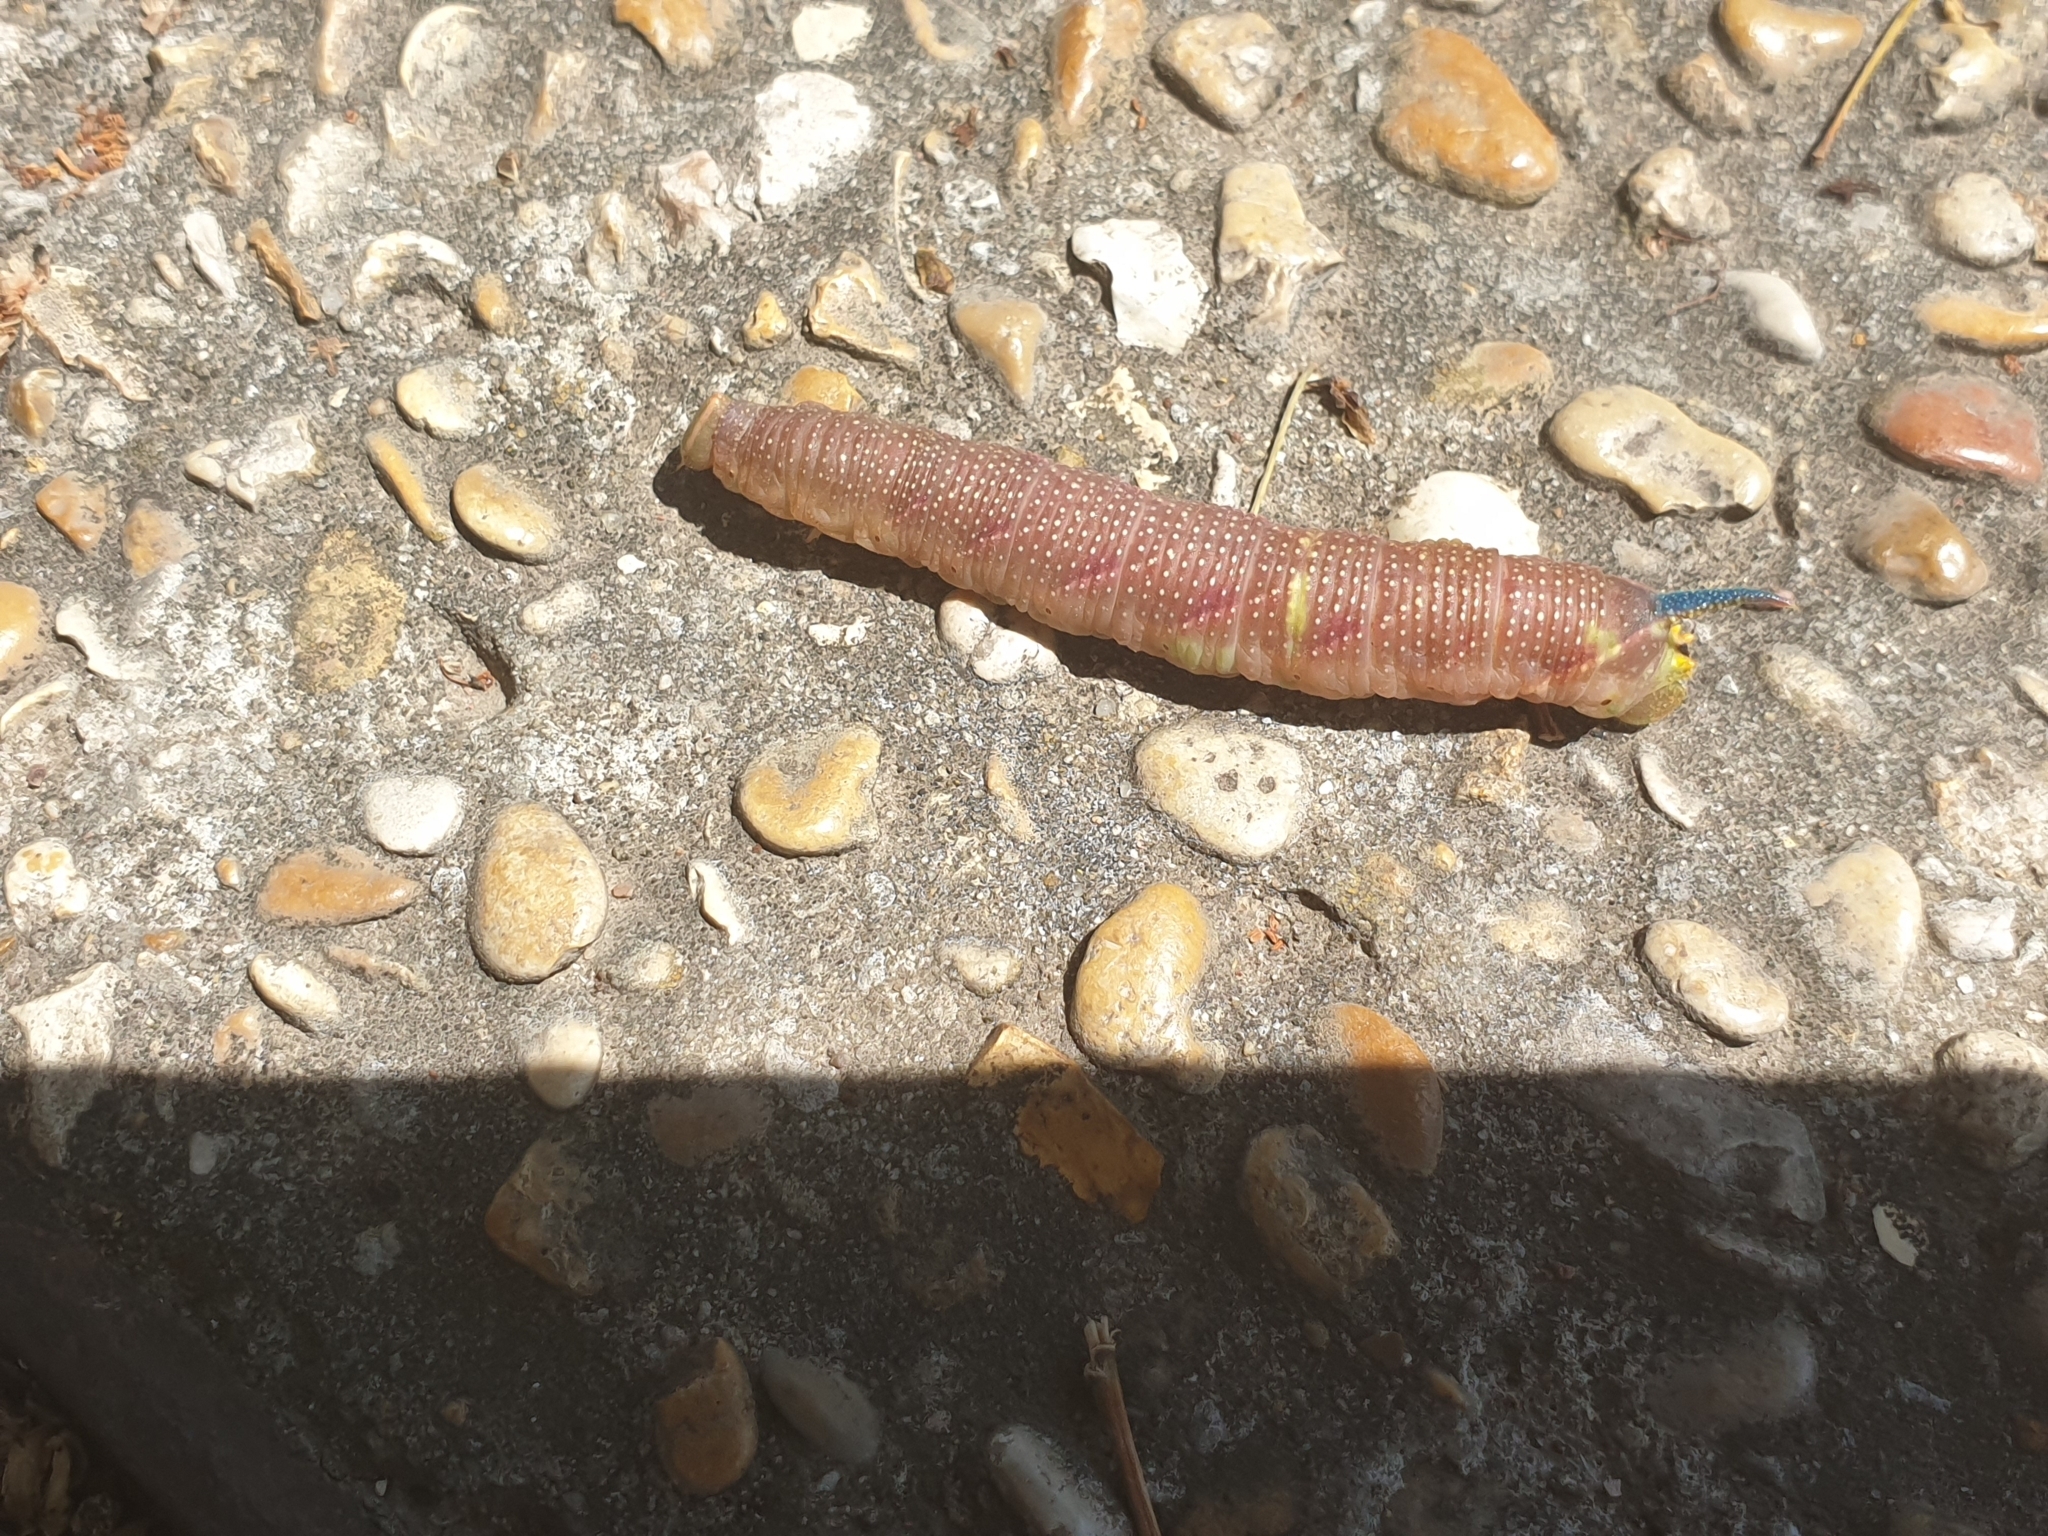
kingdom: Animalia
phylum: Arthropoda
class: Insecta
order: Lepidoptera
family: Sphingidae
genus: Mimas
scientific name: Mimas tiliae
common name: Lime hawk-moth
